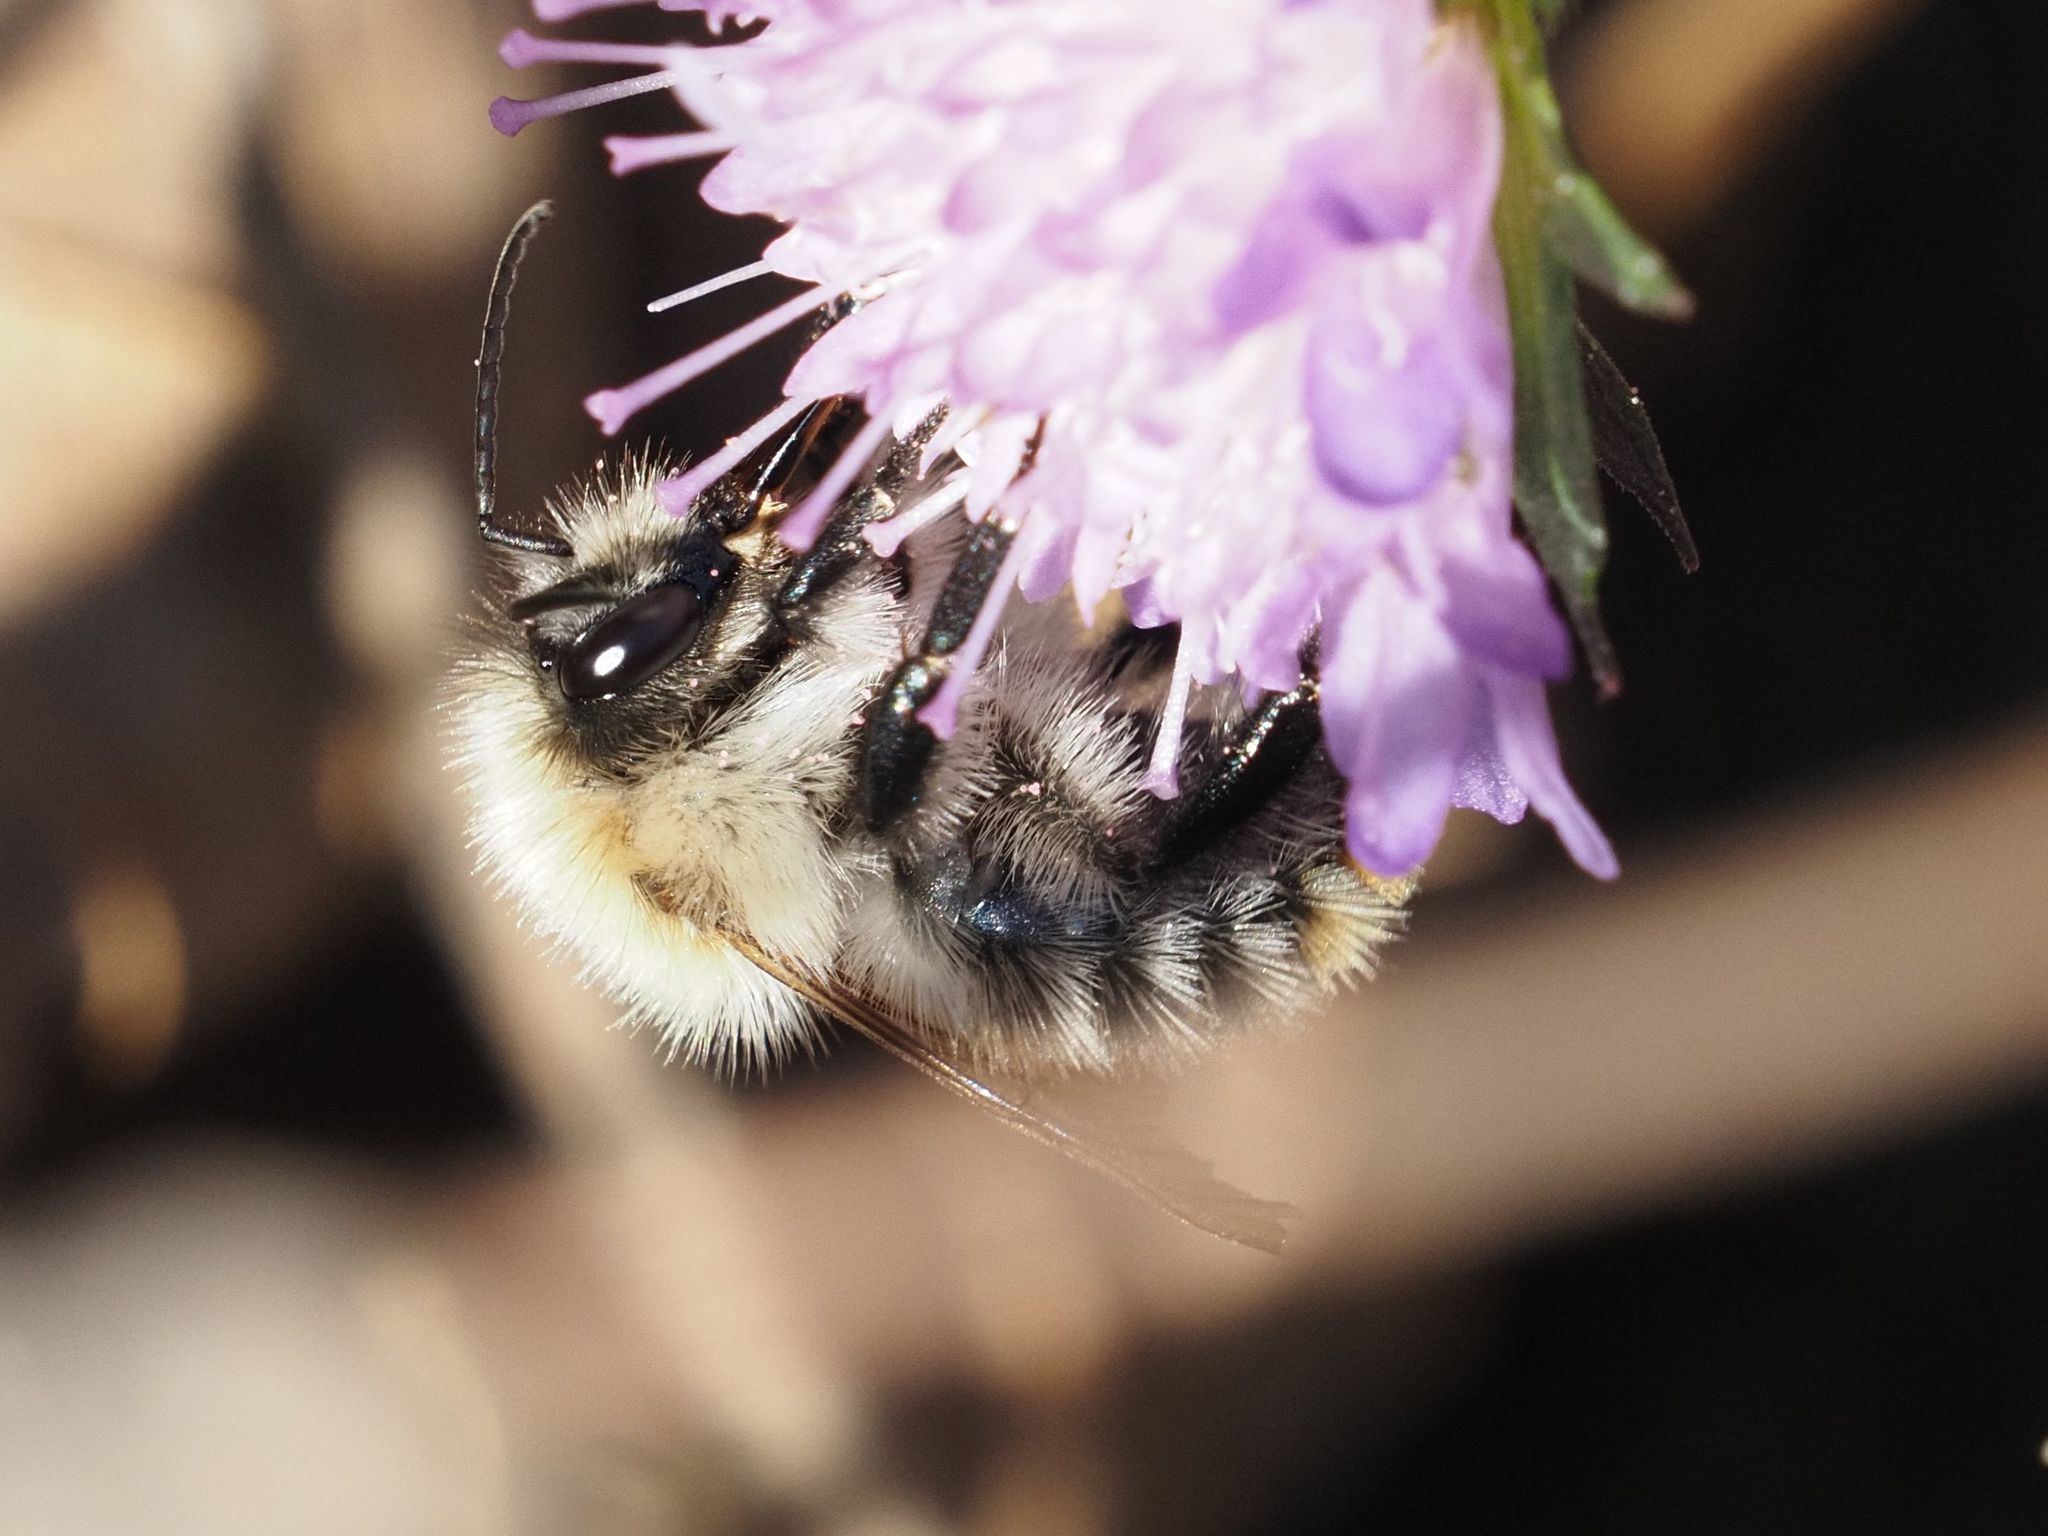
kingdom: Animalia
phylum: Arthropoda
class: Insecta
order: Hymenoptera
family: Apidae
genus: Bombus
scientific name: Bombus pascuorum
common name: Common carder bee
